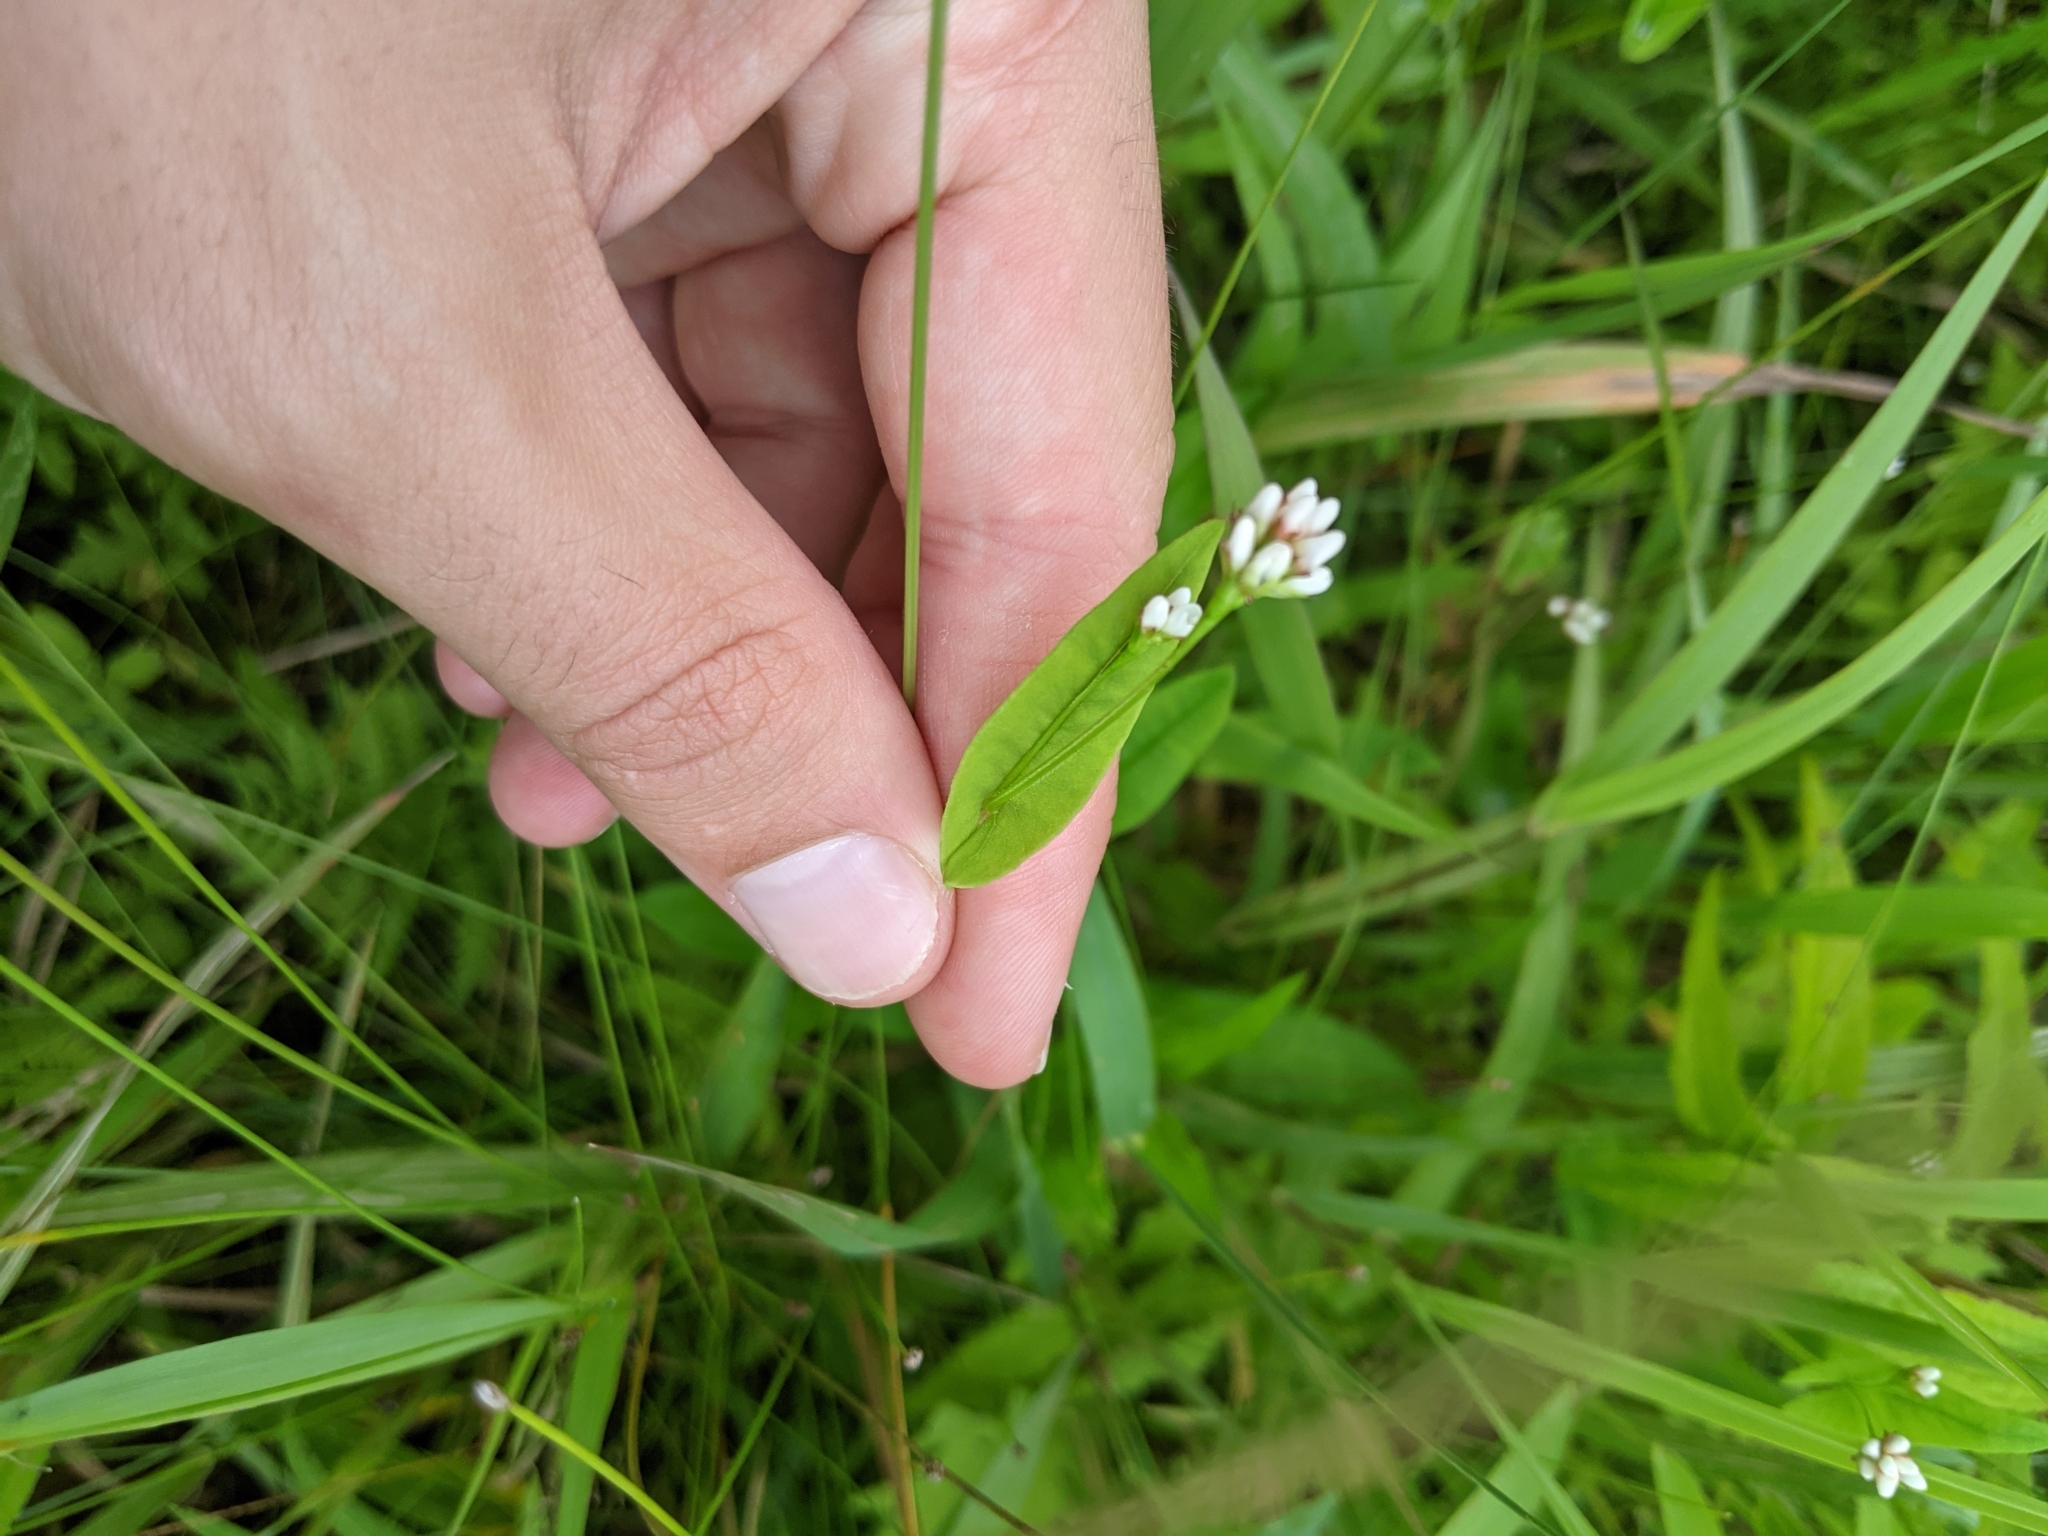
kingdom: Plantae
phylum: Tracheophyta
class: Magnoliopsida
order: Caryophyllales
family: Polygonaceae
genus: Persicaria
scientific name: Persicaria sagittata
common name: American tearthumb
